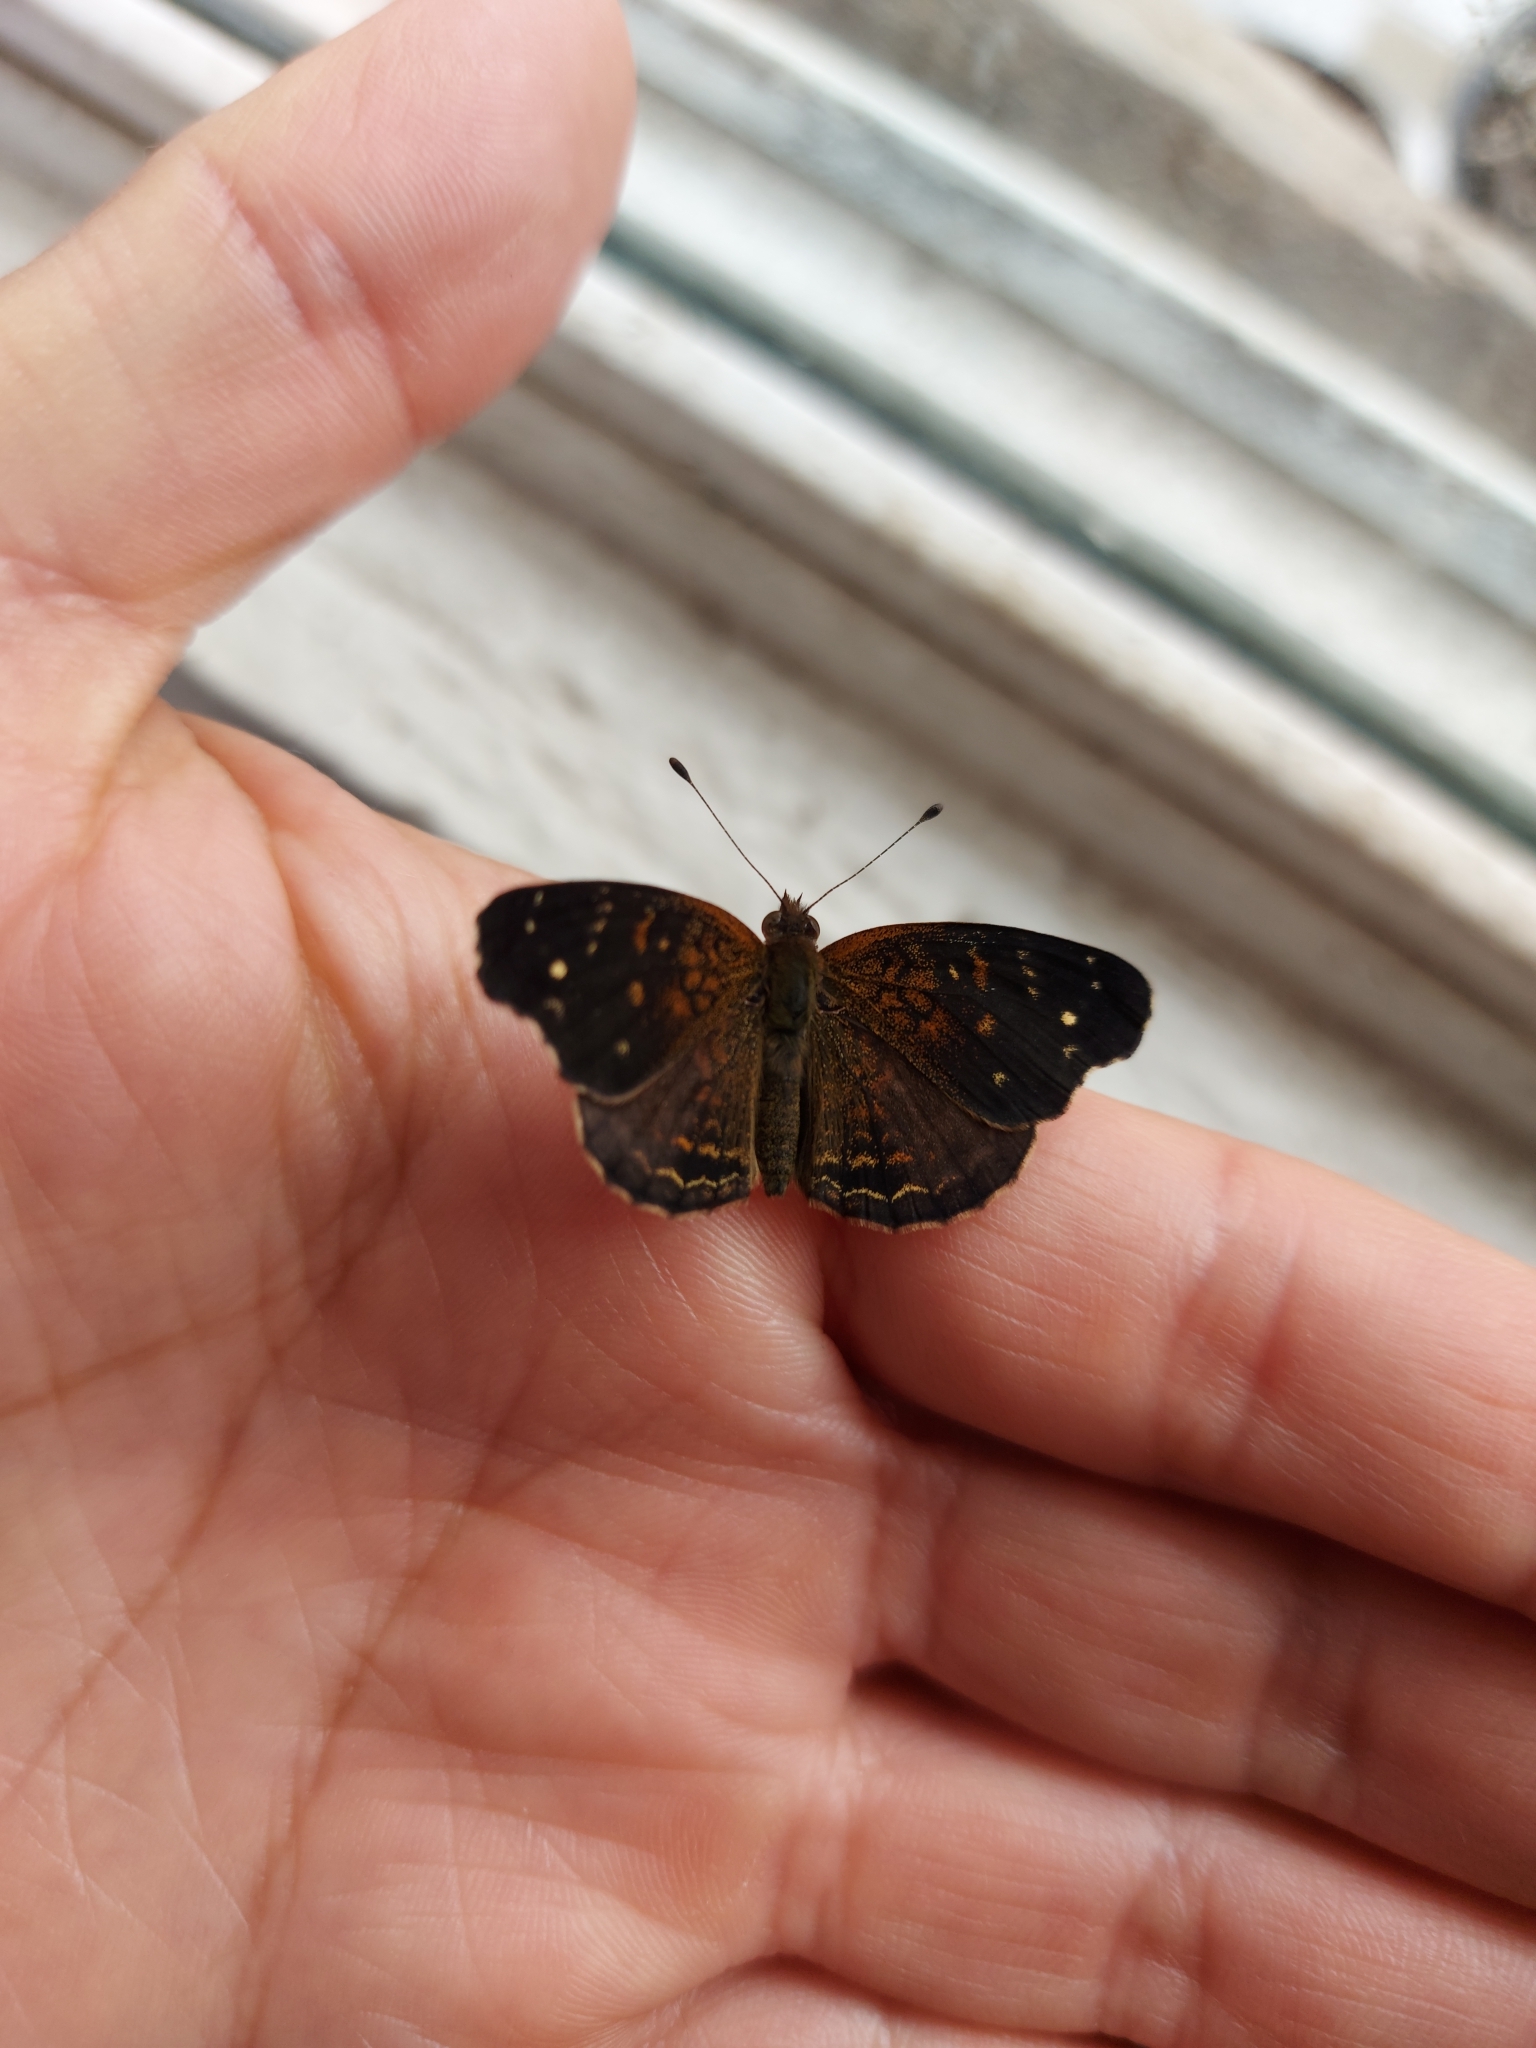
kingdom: Animalia
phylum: Arthropoda
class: Insecta
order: Lepidoptera
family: Nymphalidae
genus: Anthanassa
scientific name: Anthanassa atronia
